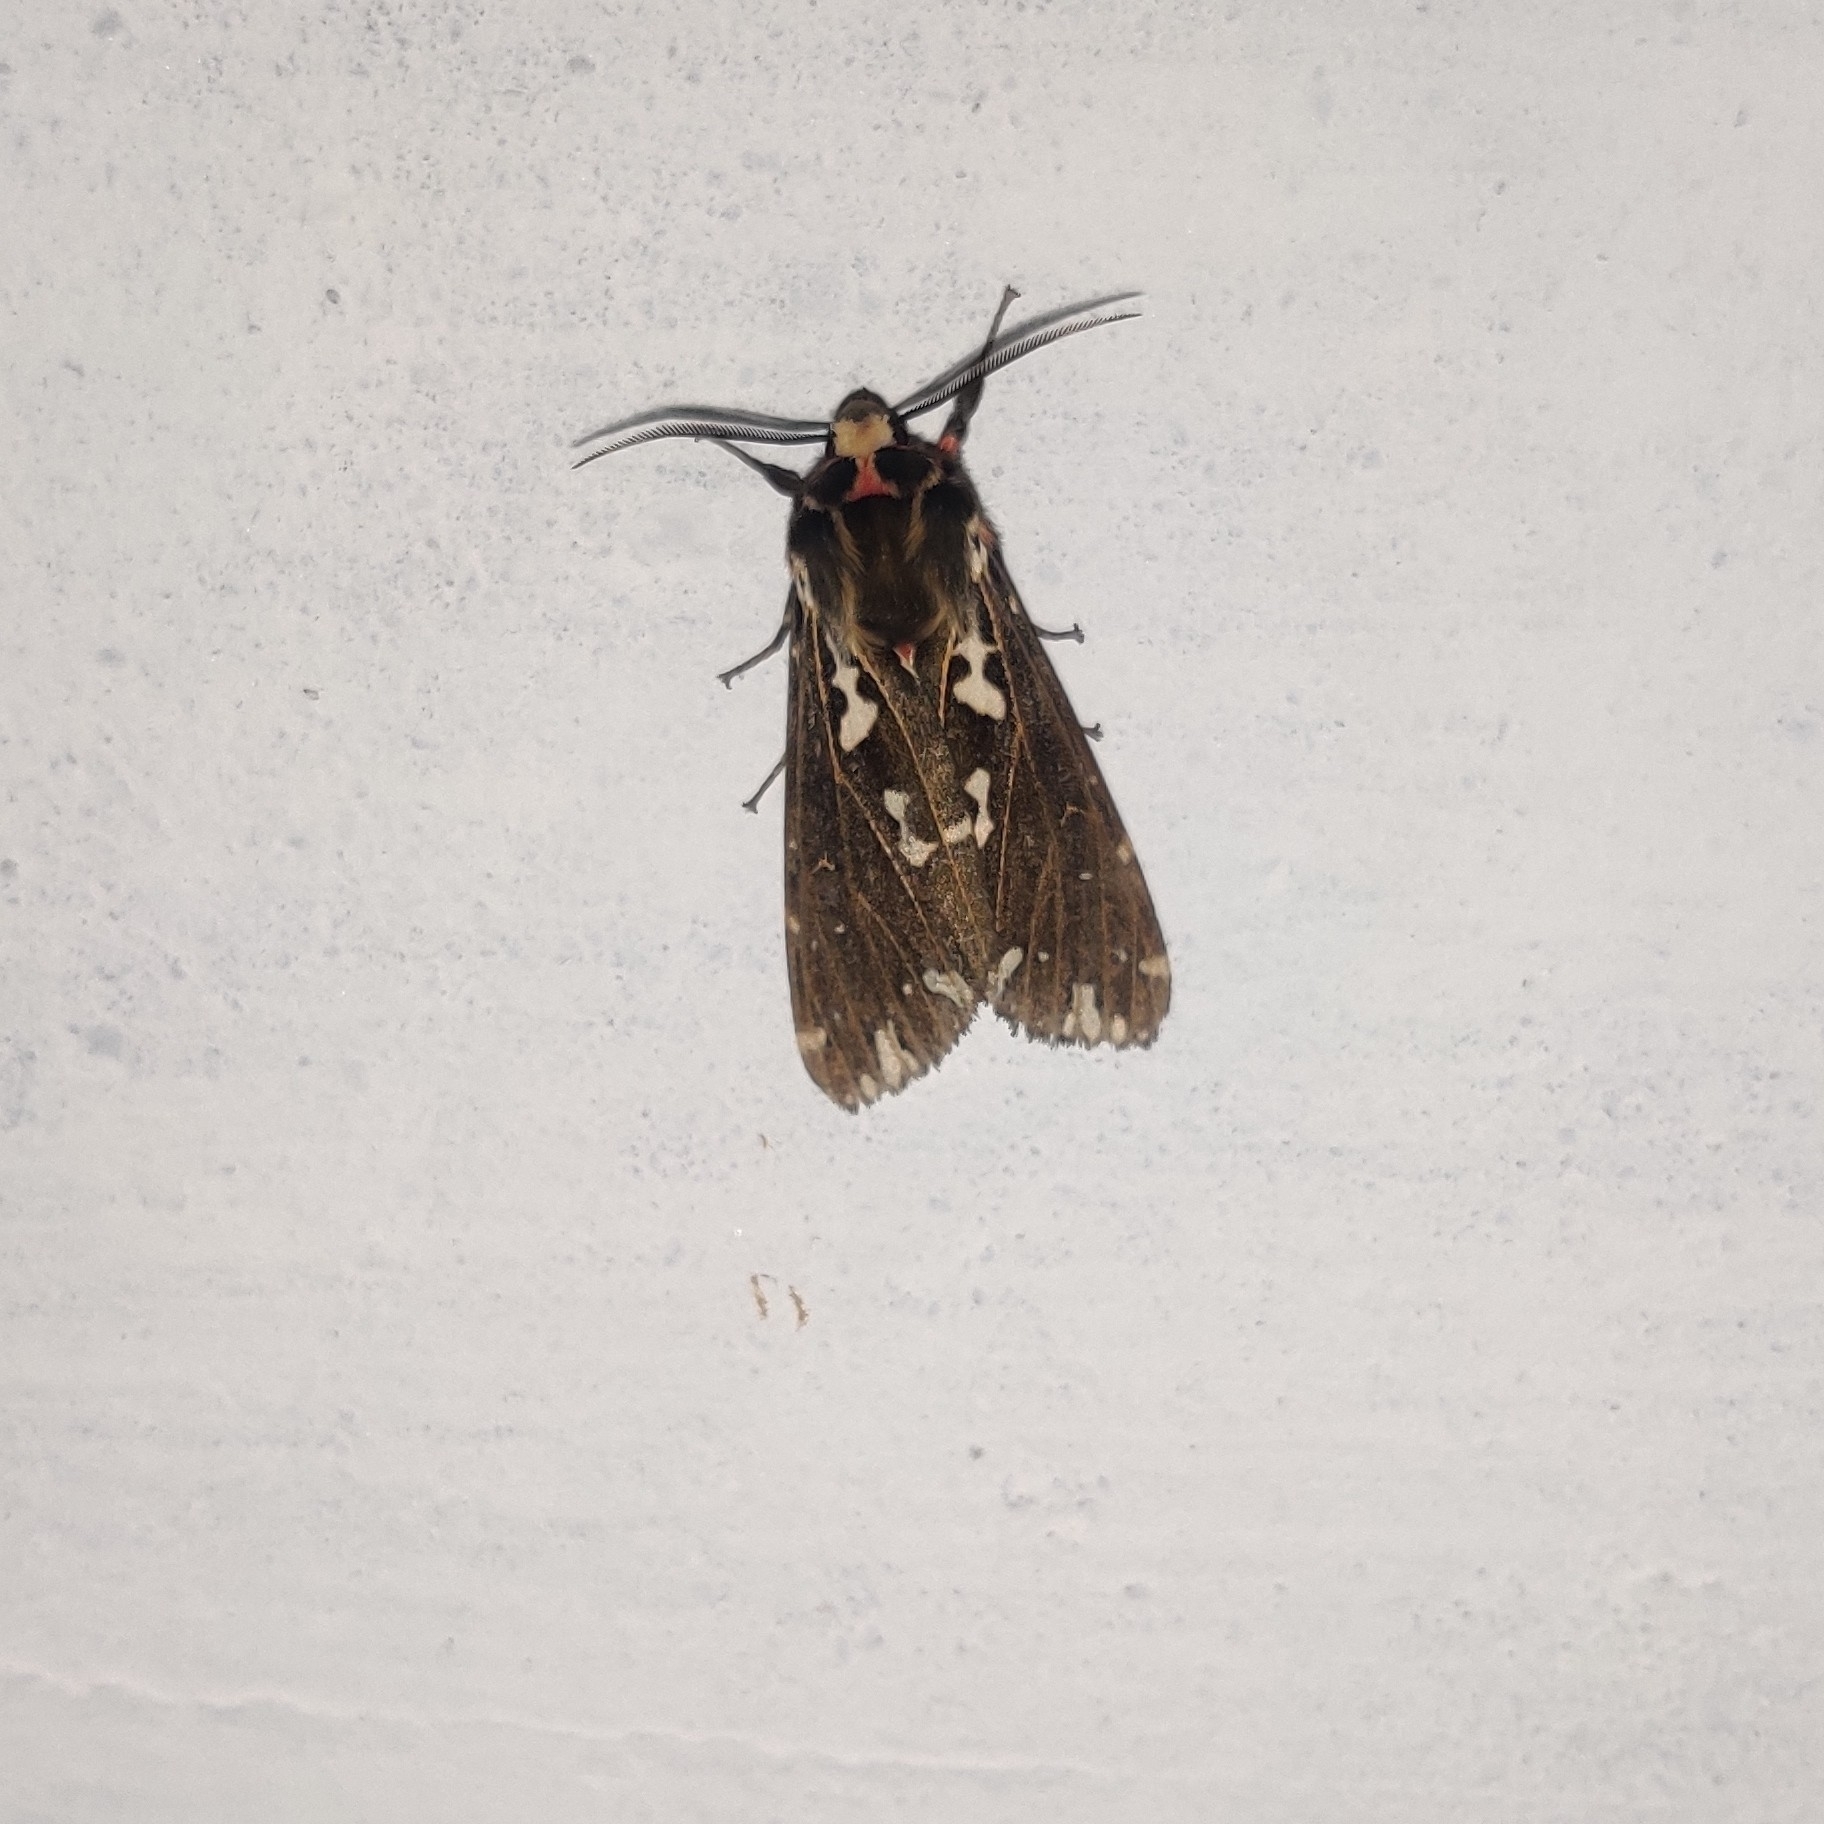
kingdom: Animalia
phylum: Arthropoda
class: Insecta
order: Lepidoptera
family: Erebidae
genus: Alphaea
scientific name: Alphaea imbuta
